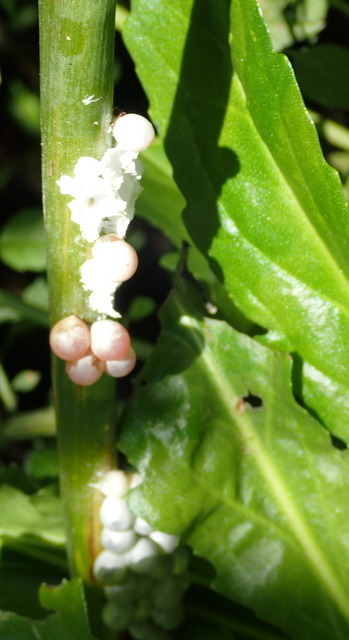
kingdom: Animalia
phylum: Mollusca
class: Gastropoda
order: Architaenioglossa
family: Ampullariidae
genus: Pomacea
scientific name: Pomacea paludosa
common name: Florida applesnail
